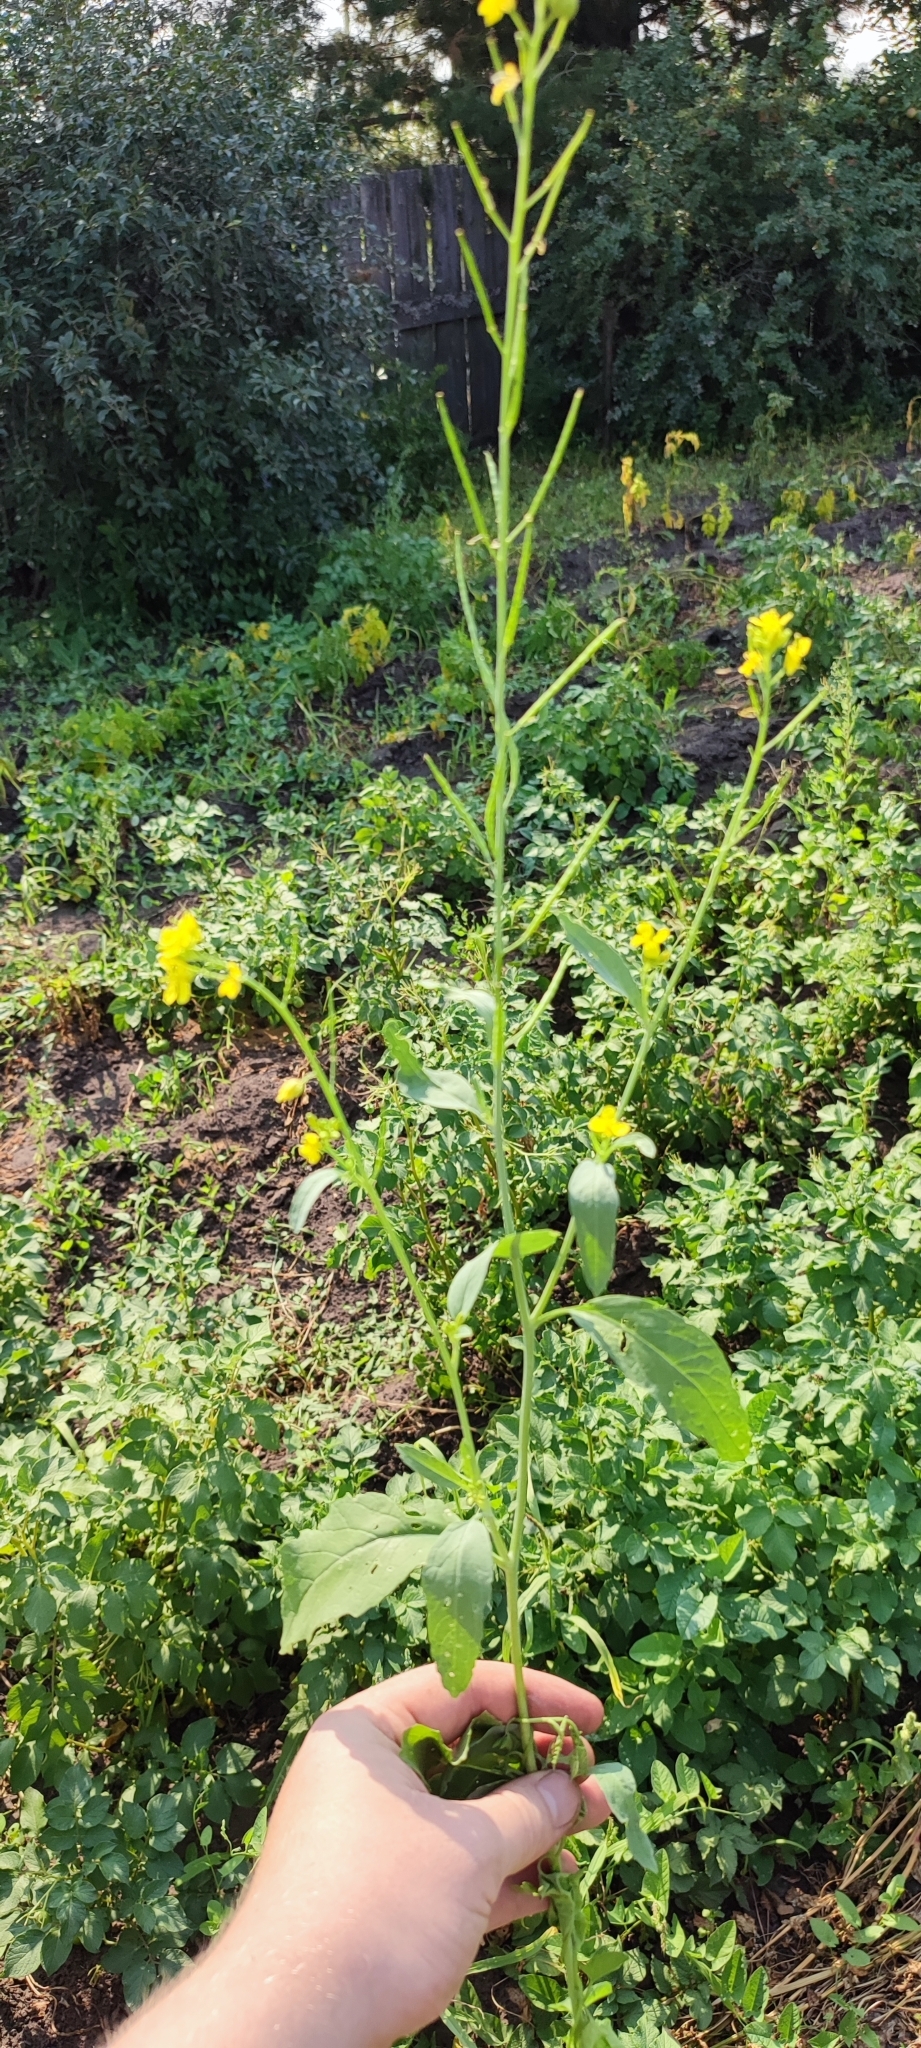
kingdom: Plantae
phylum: Tracheophyta
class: Magnoliopsida
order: Brassicales
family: Brassicaceae
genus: Brassica
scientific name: Brassica juncea
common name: Brown mustard
